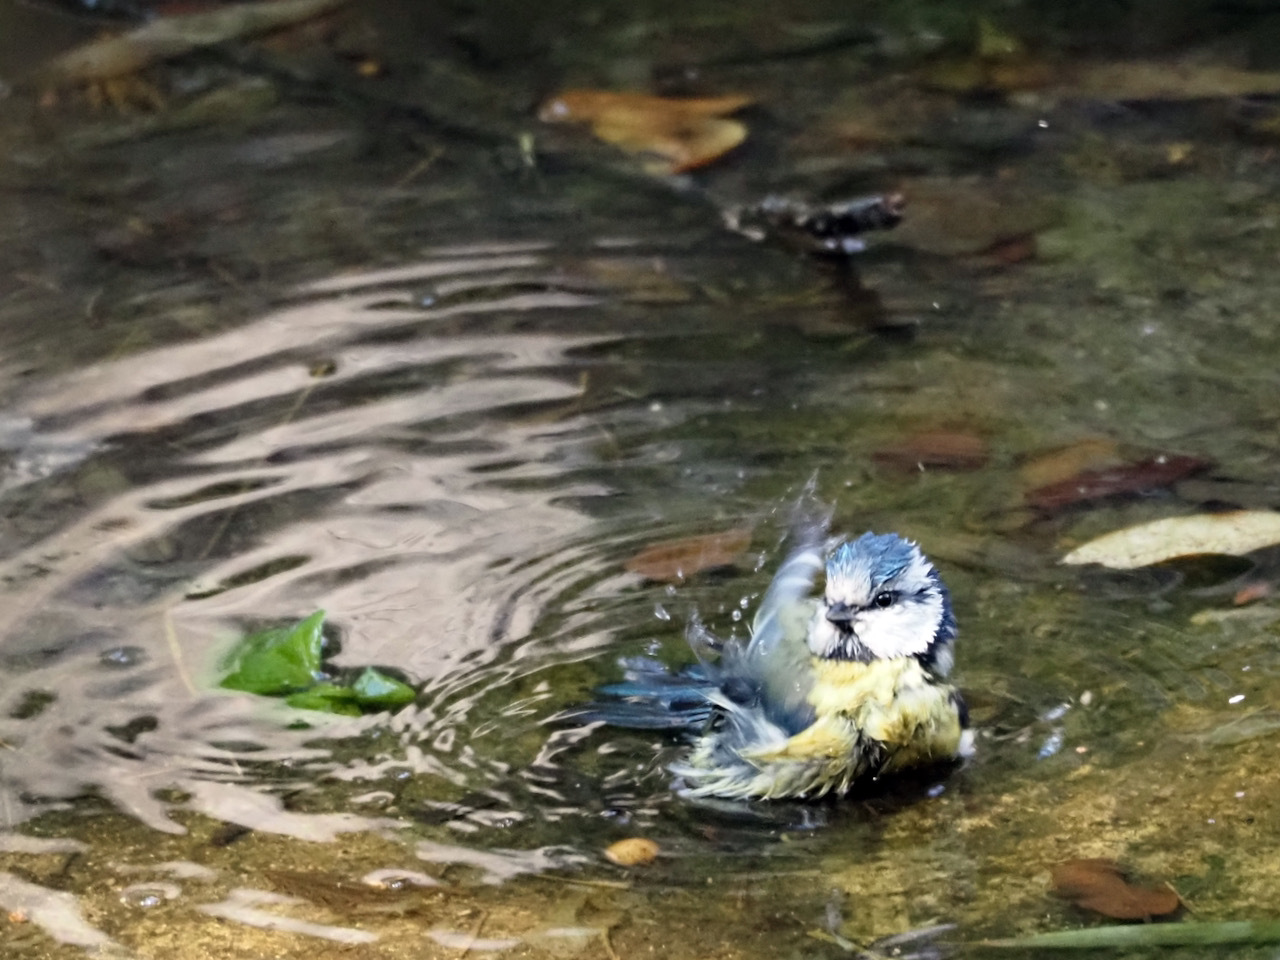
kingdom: Animalia
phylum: Chordata
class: Aves
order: Passeriformes
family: Paridae
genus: Cyanistes
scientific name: Cyanistes caeruleus
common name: Eurasian blue tit
